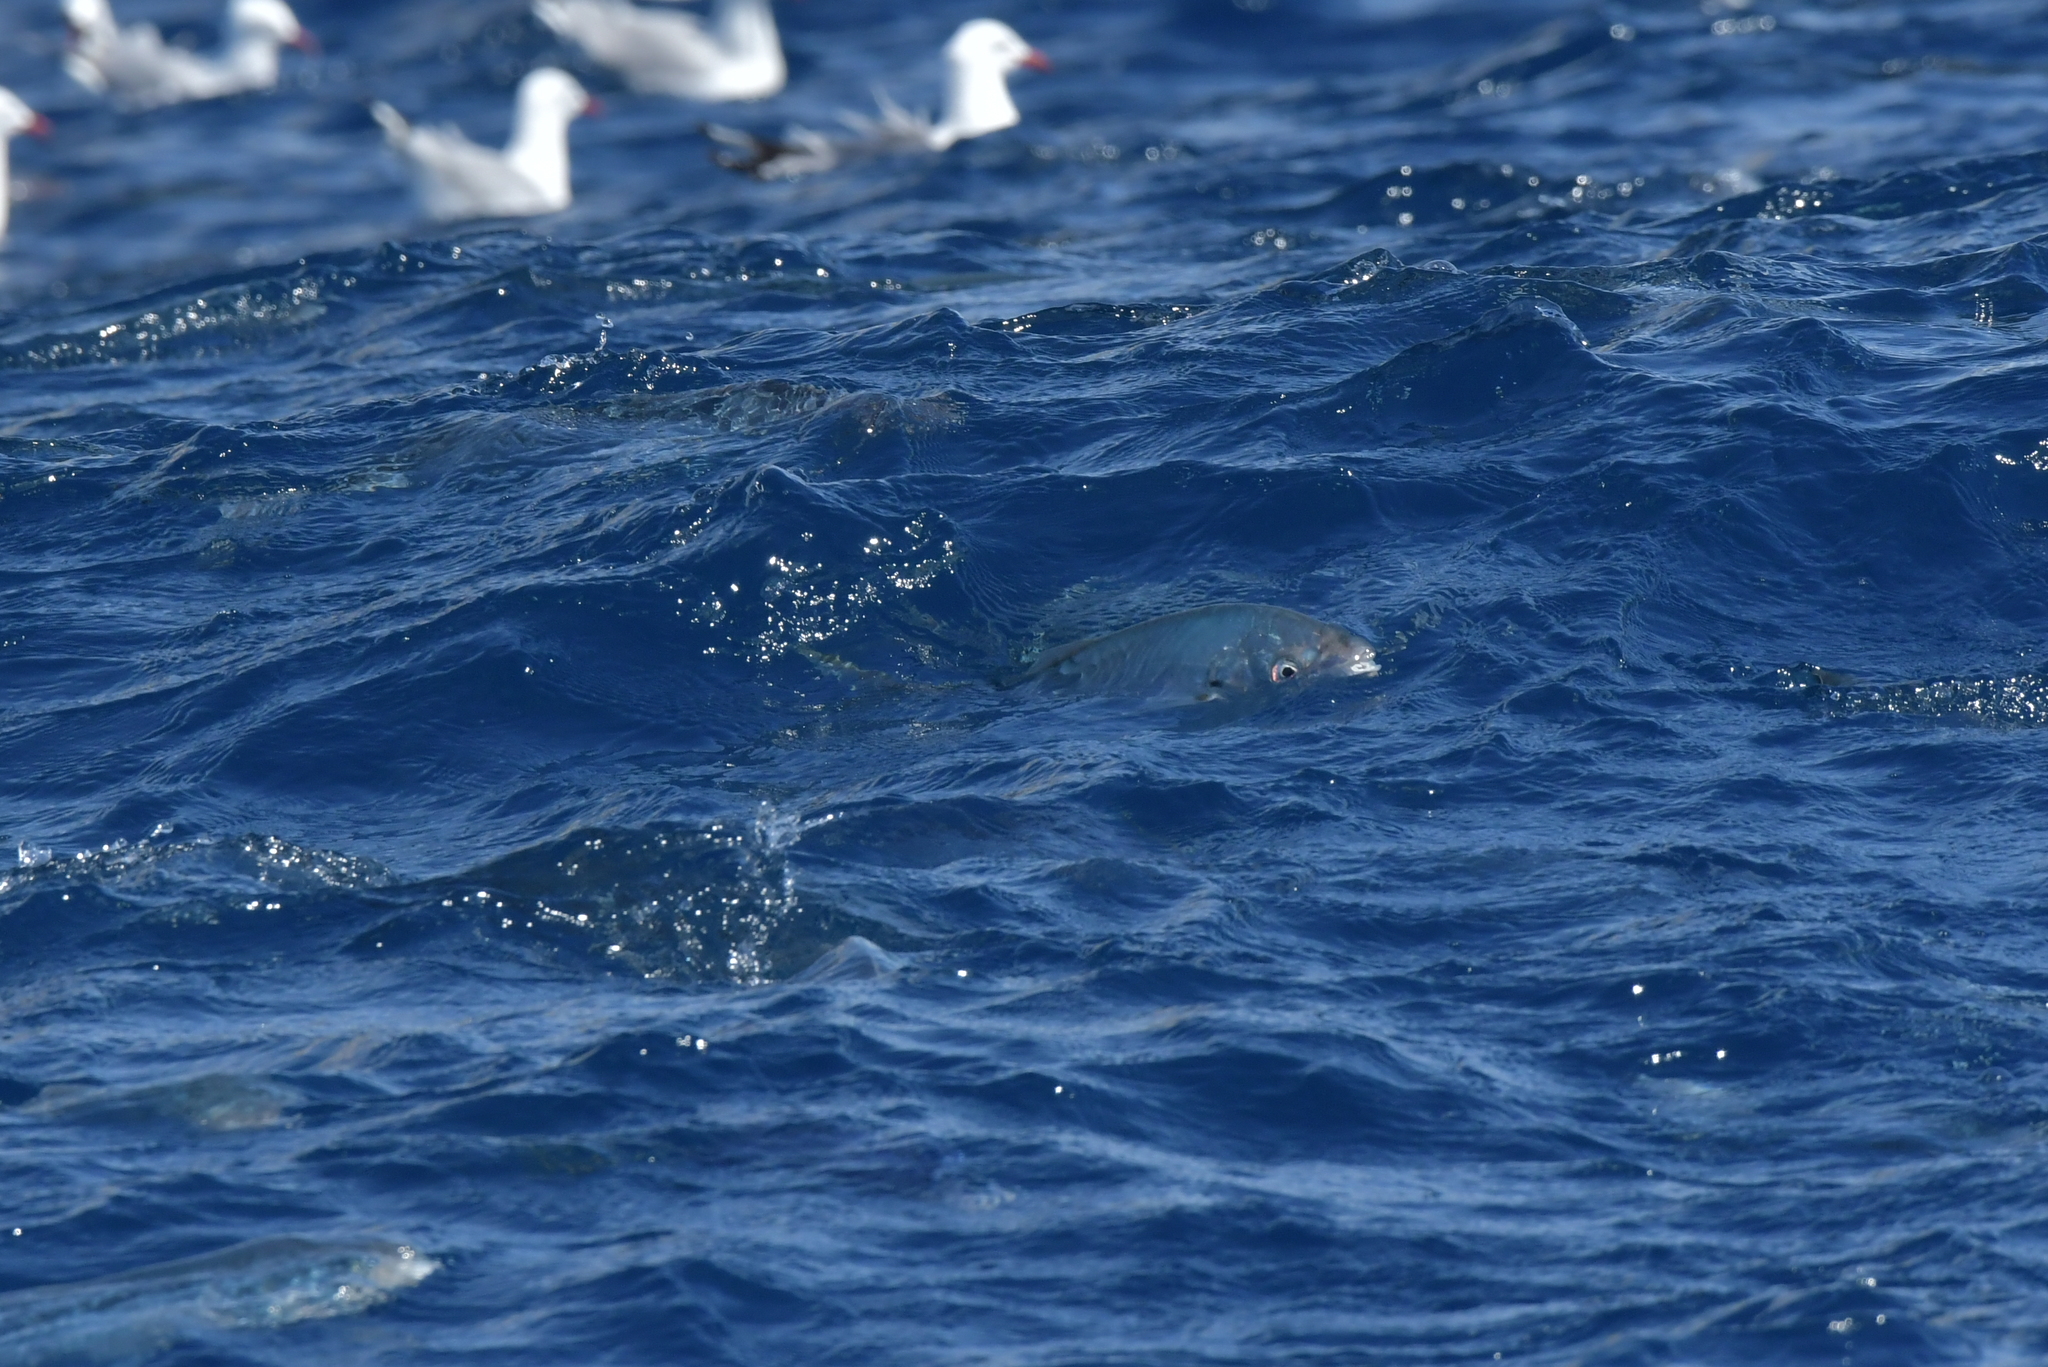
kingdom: Animalia
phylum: Chordata
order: Perciformes
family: Carangidae
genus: Pseudocaranx
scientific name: Pseudocaranx dentex
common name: White trevally
